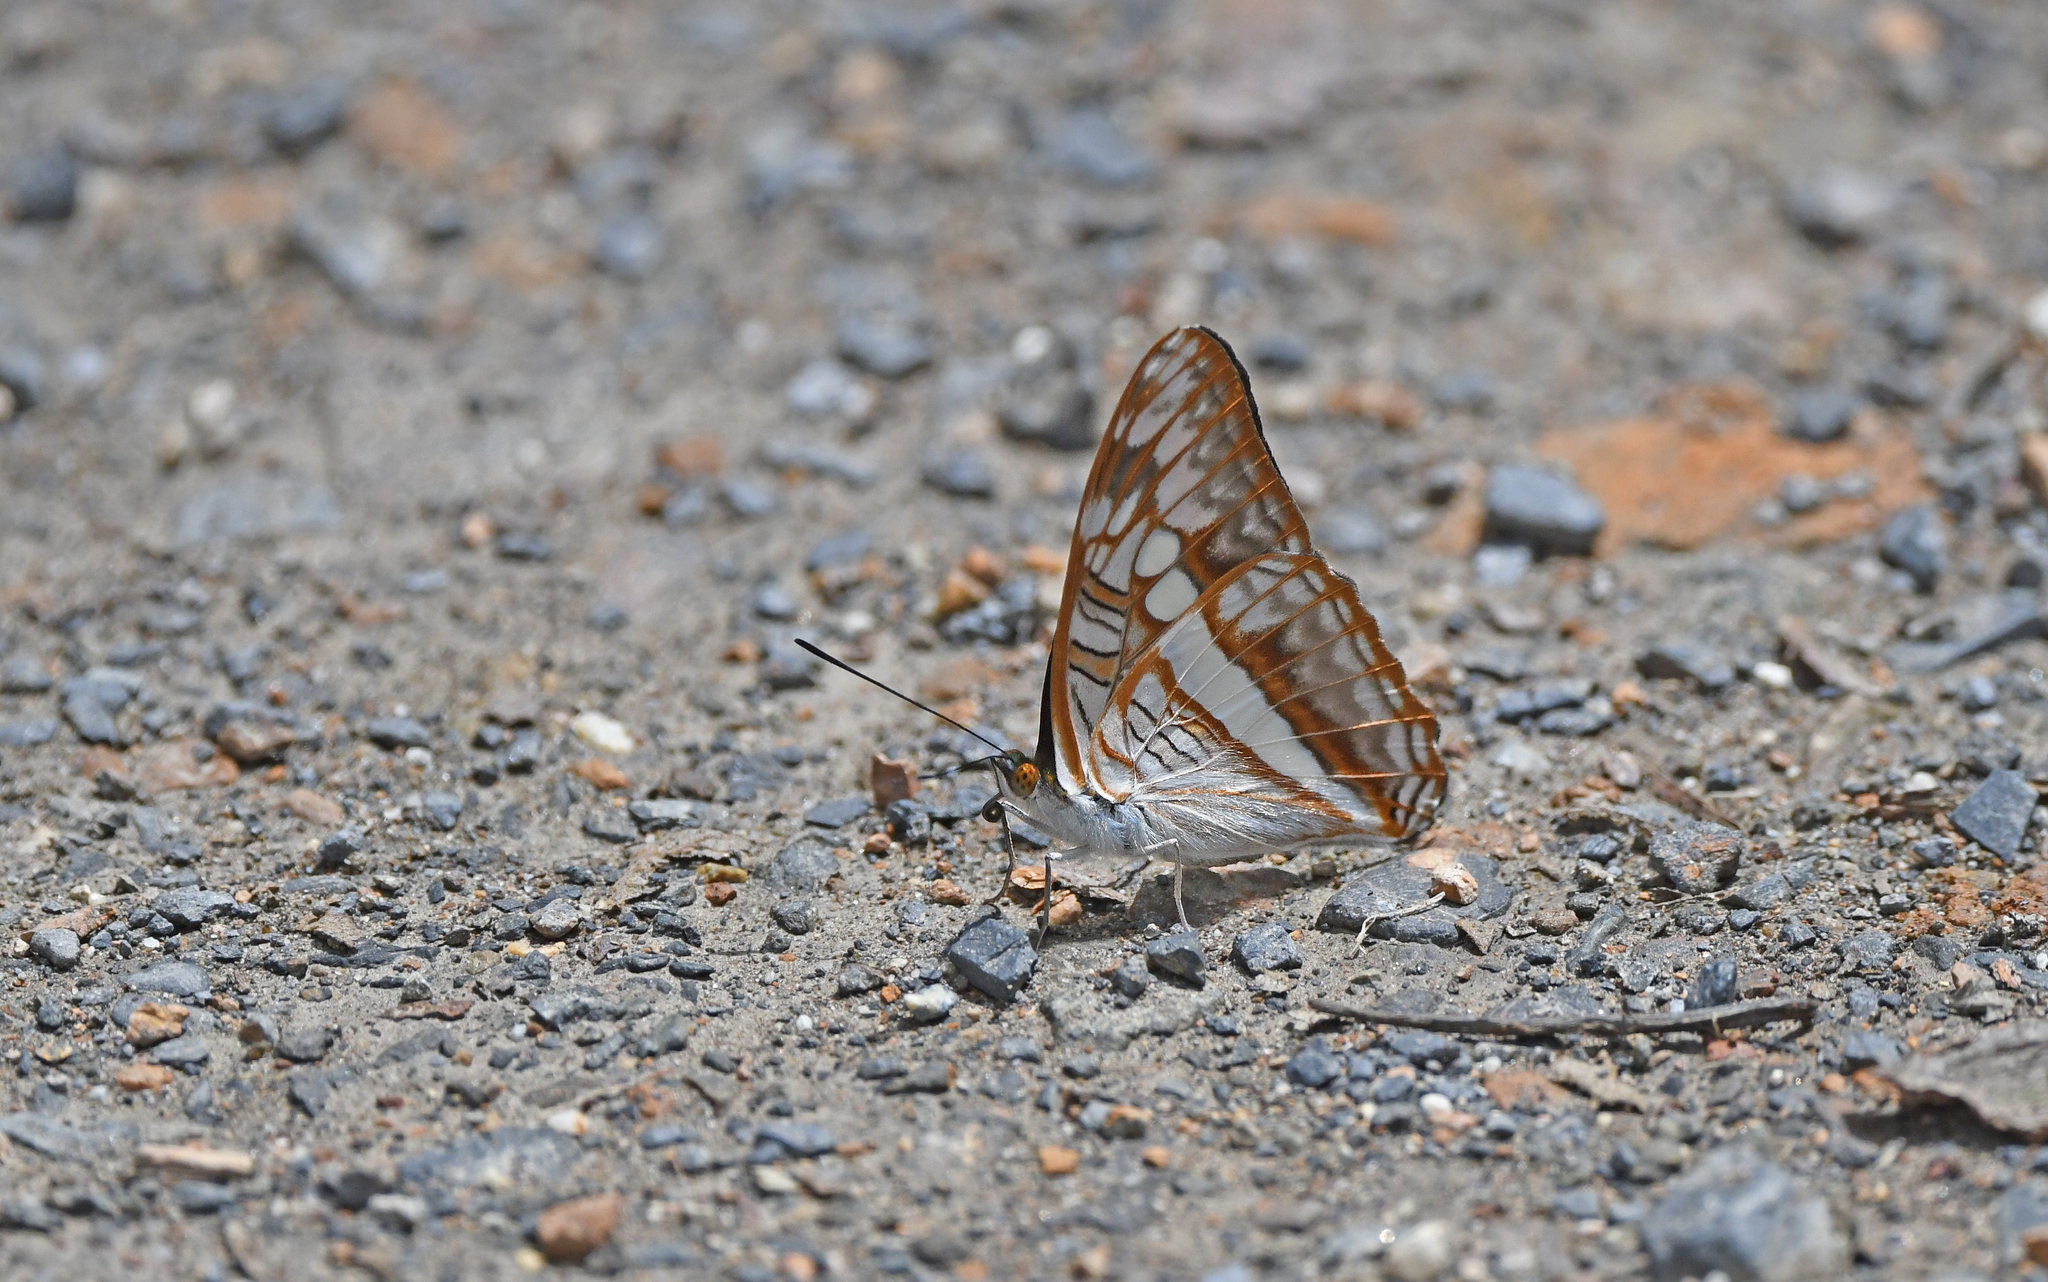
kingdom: Animalia
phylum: Arthropoda
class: Insecta
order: Lepidoptera
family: Nymphalidae
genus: Limenitis
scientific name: Limenitis alala
